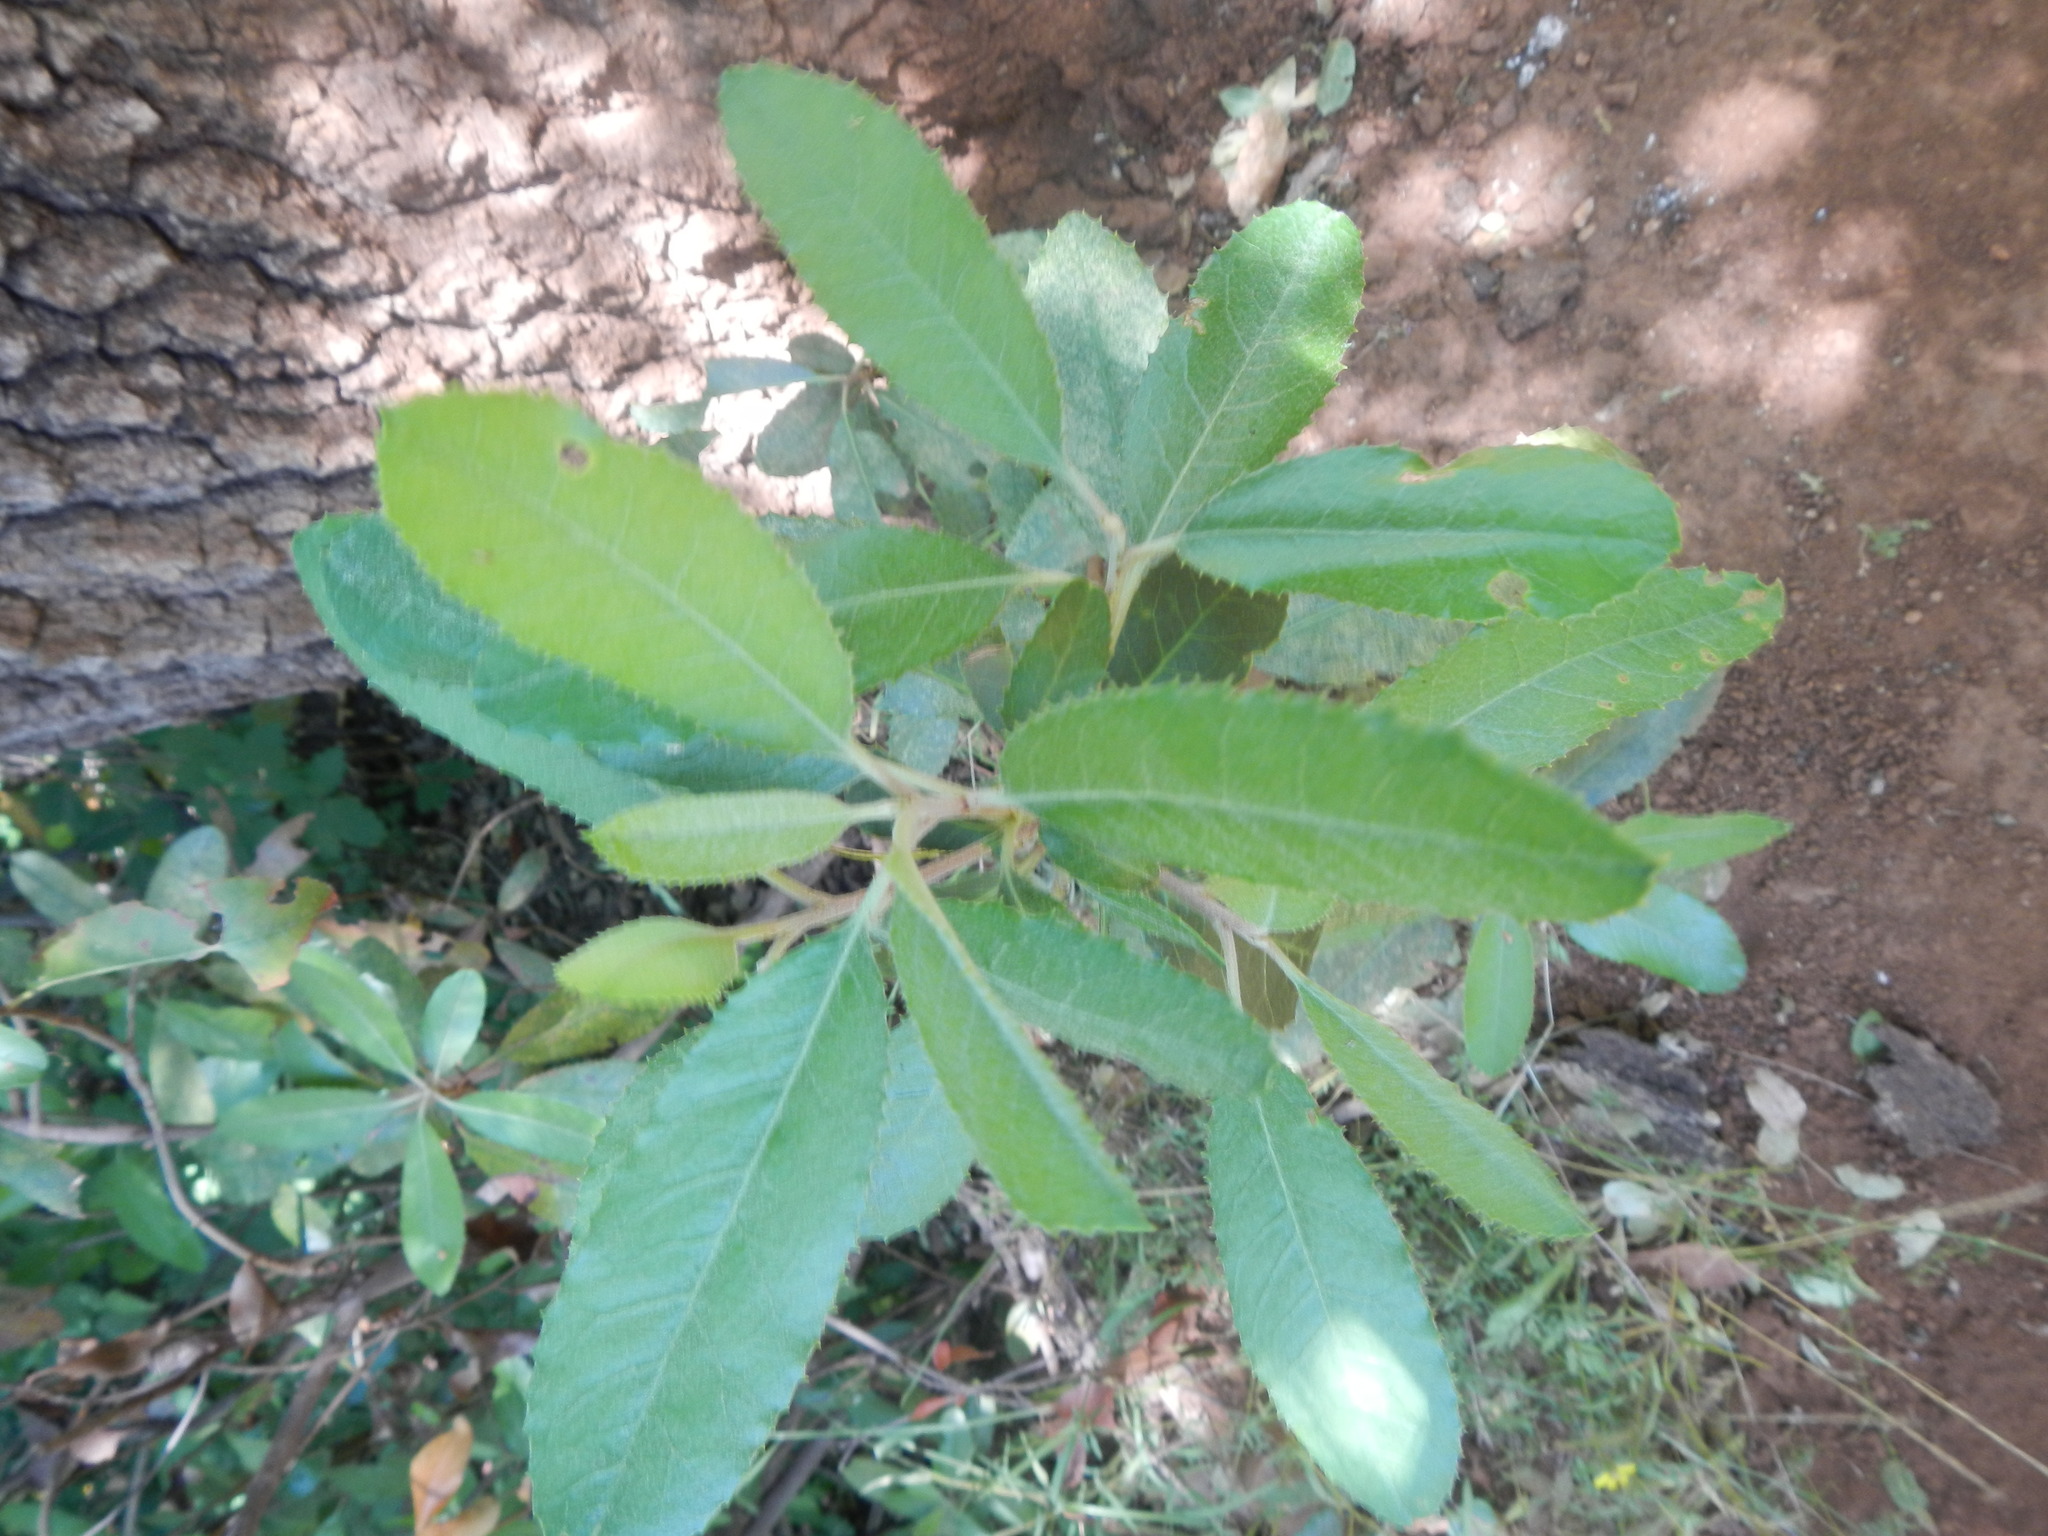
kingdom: Plantae
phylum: Tracheophyta
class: Magnoliopsida
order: Rosales
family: Rosaceae
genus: Heteromeles
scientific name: Heteromeles arbutifolia
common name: California-holly
